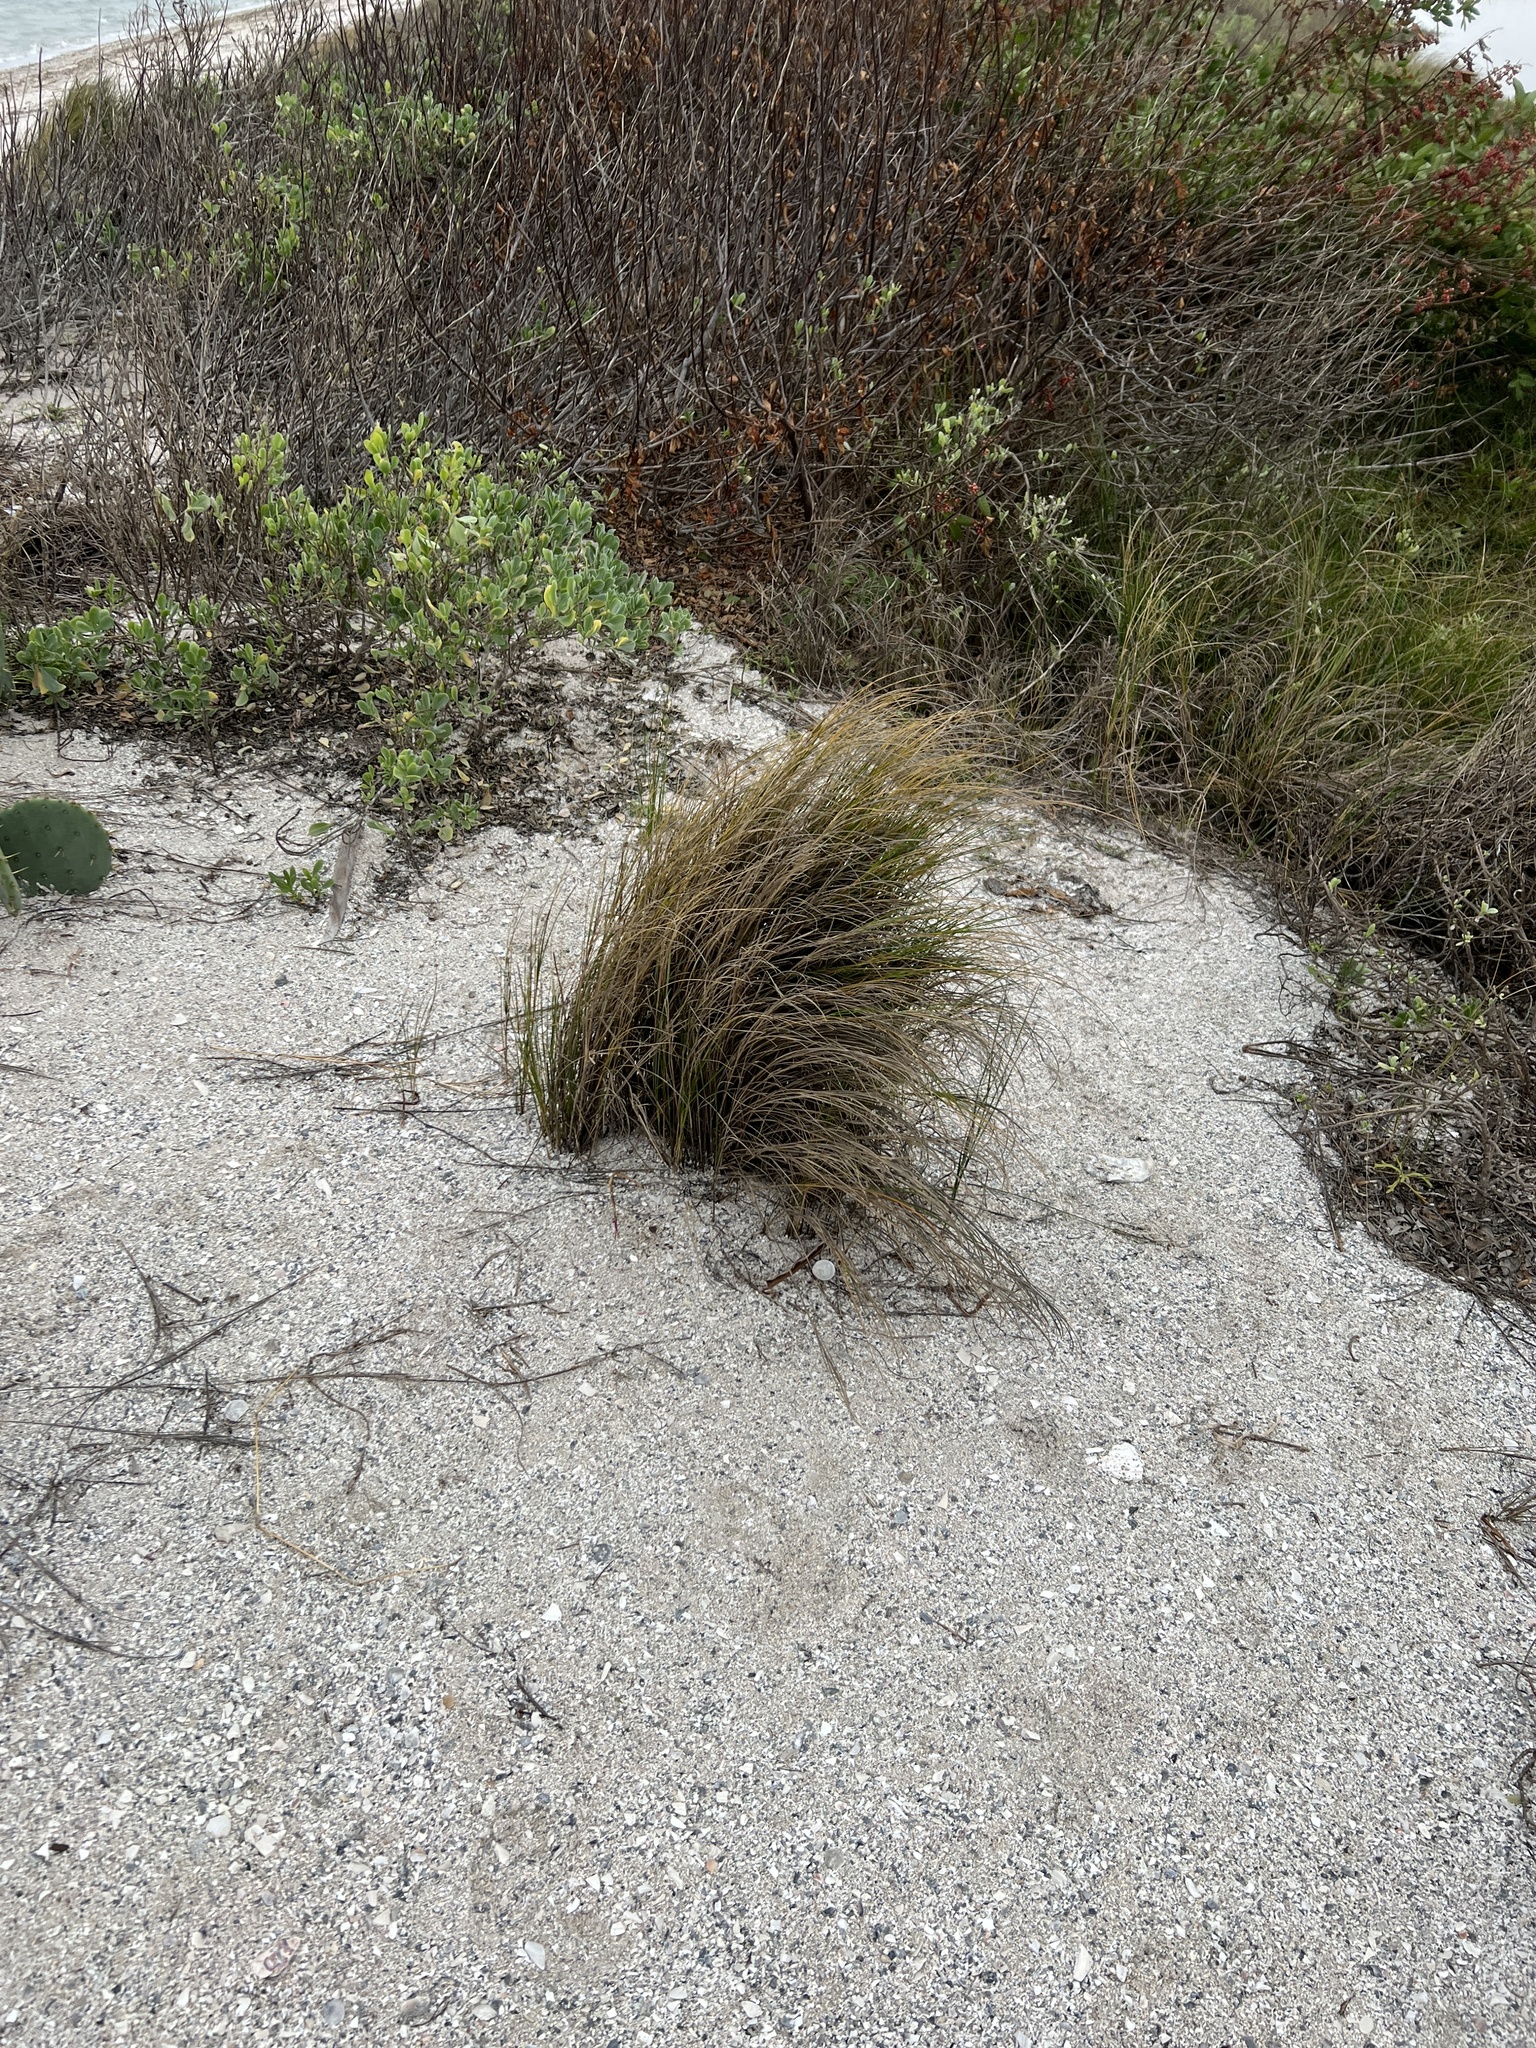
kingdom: Plantae
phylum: Tracheophyta
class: Liliopsida
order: Poales
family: Poaceae
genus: Panicum
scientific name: Panicum amarum
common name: Bitter panicum
